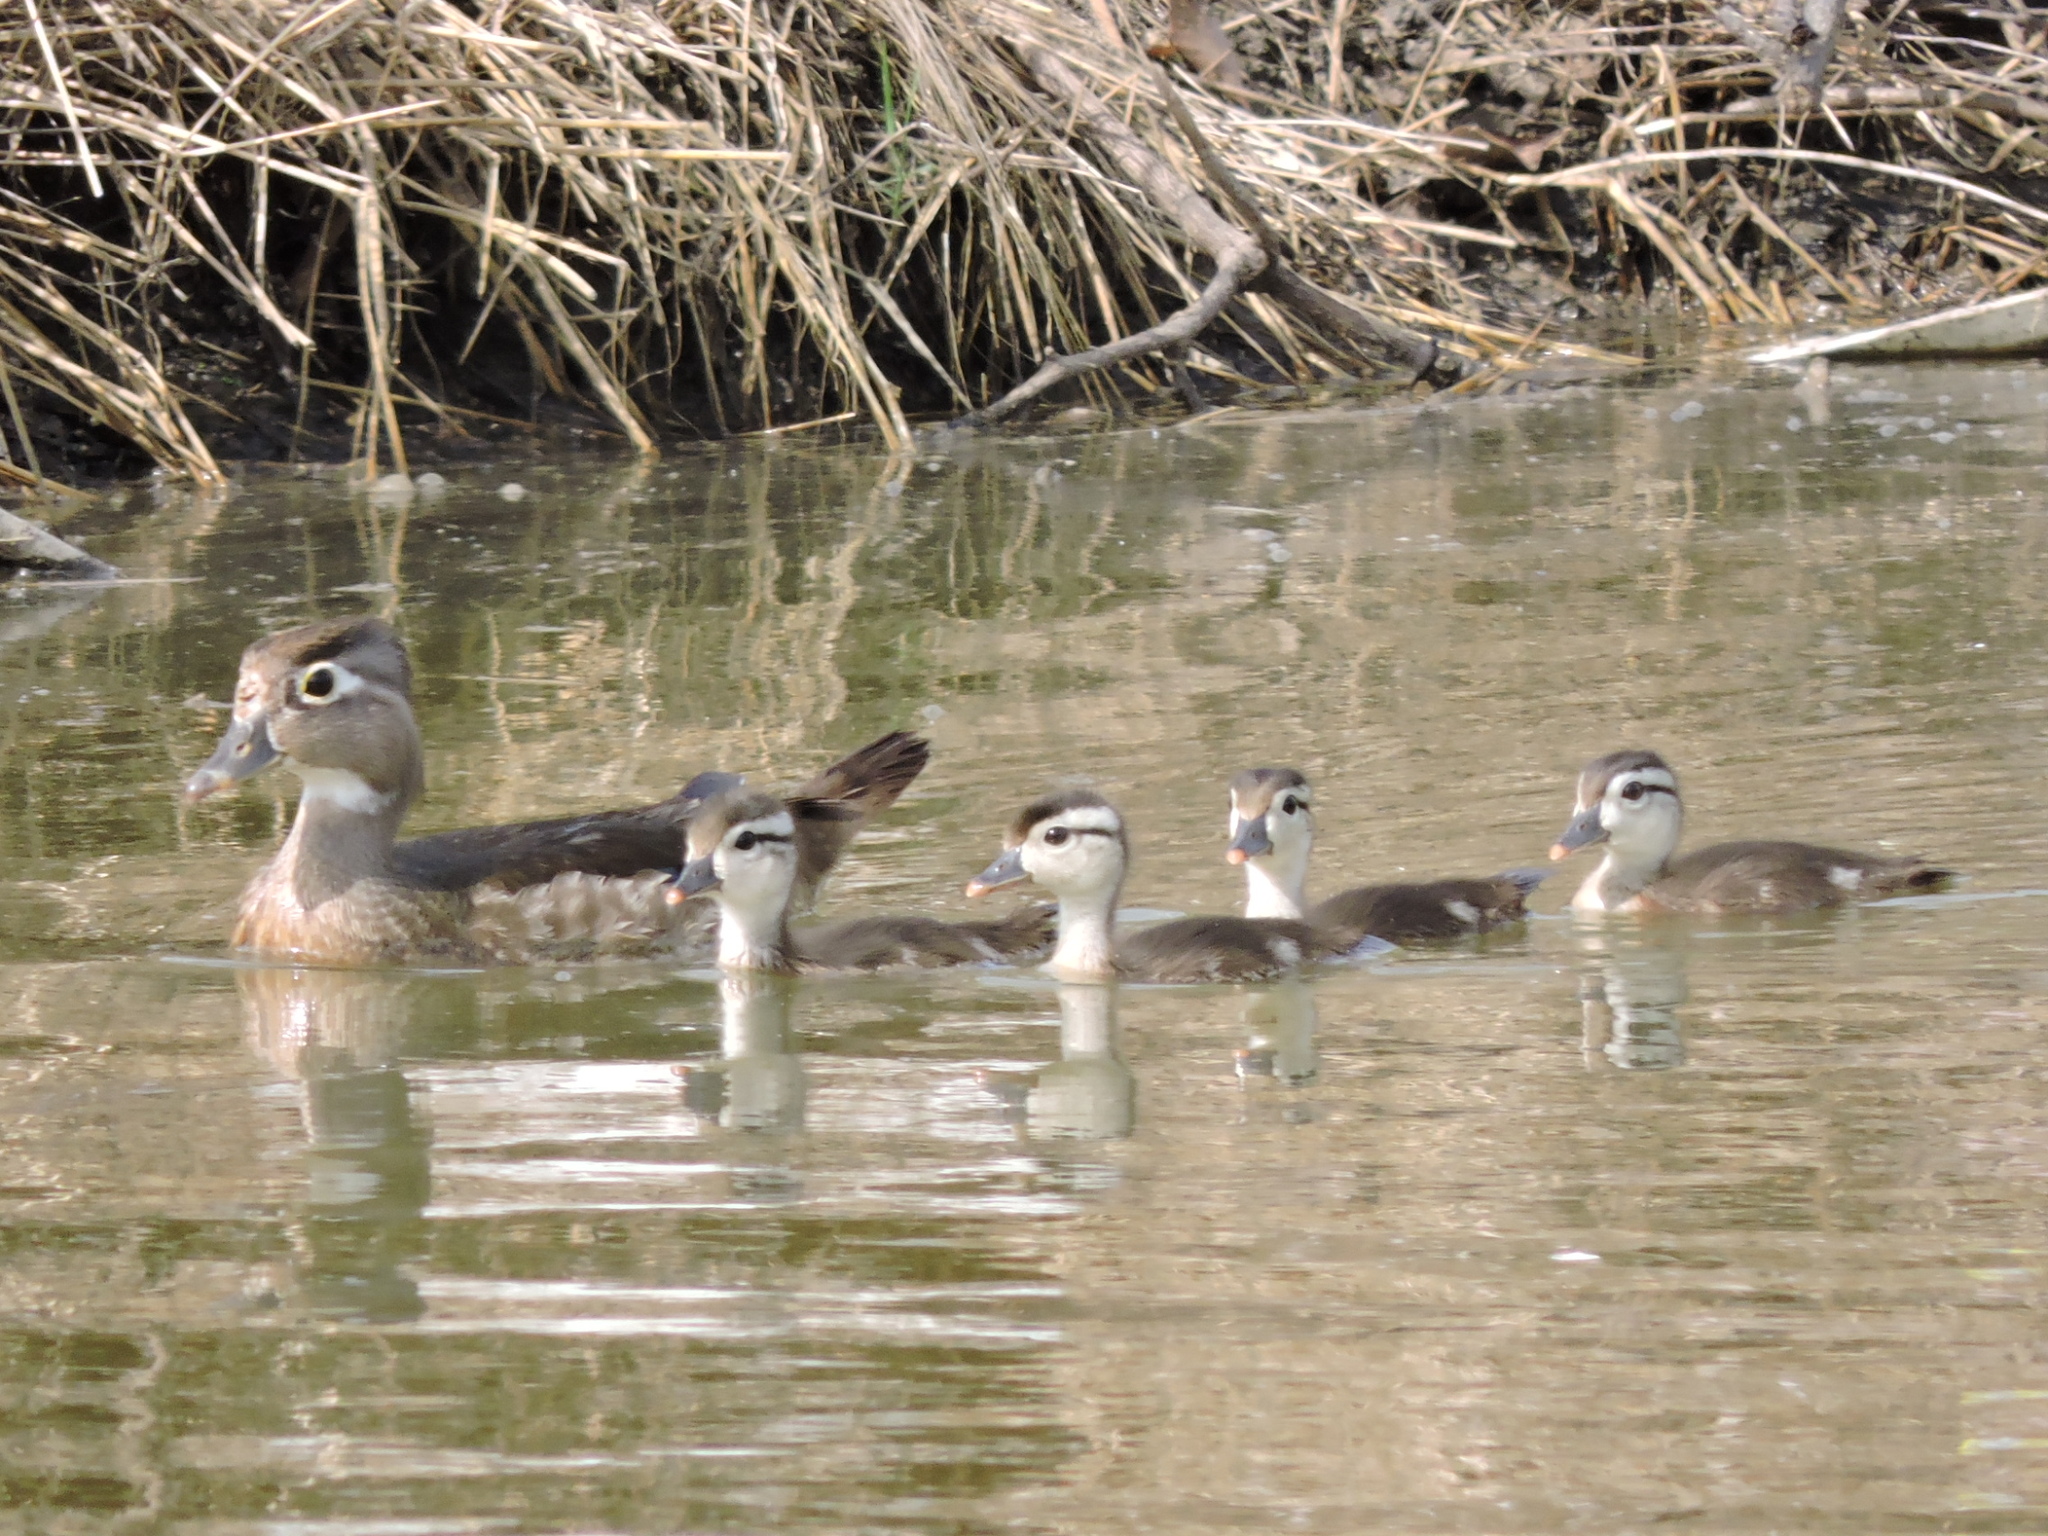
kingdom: Animalia
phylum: Chordata
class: Aves
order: Anseriformes
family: Anatidae
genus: Aix
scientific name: Aix sponsa
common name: Wood duck
